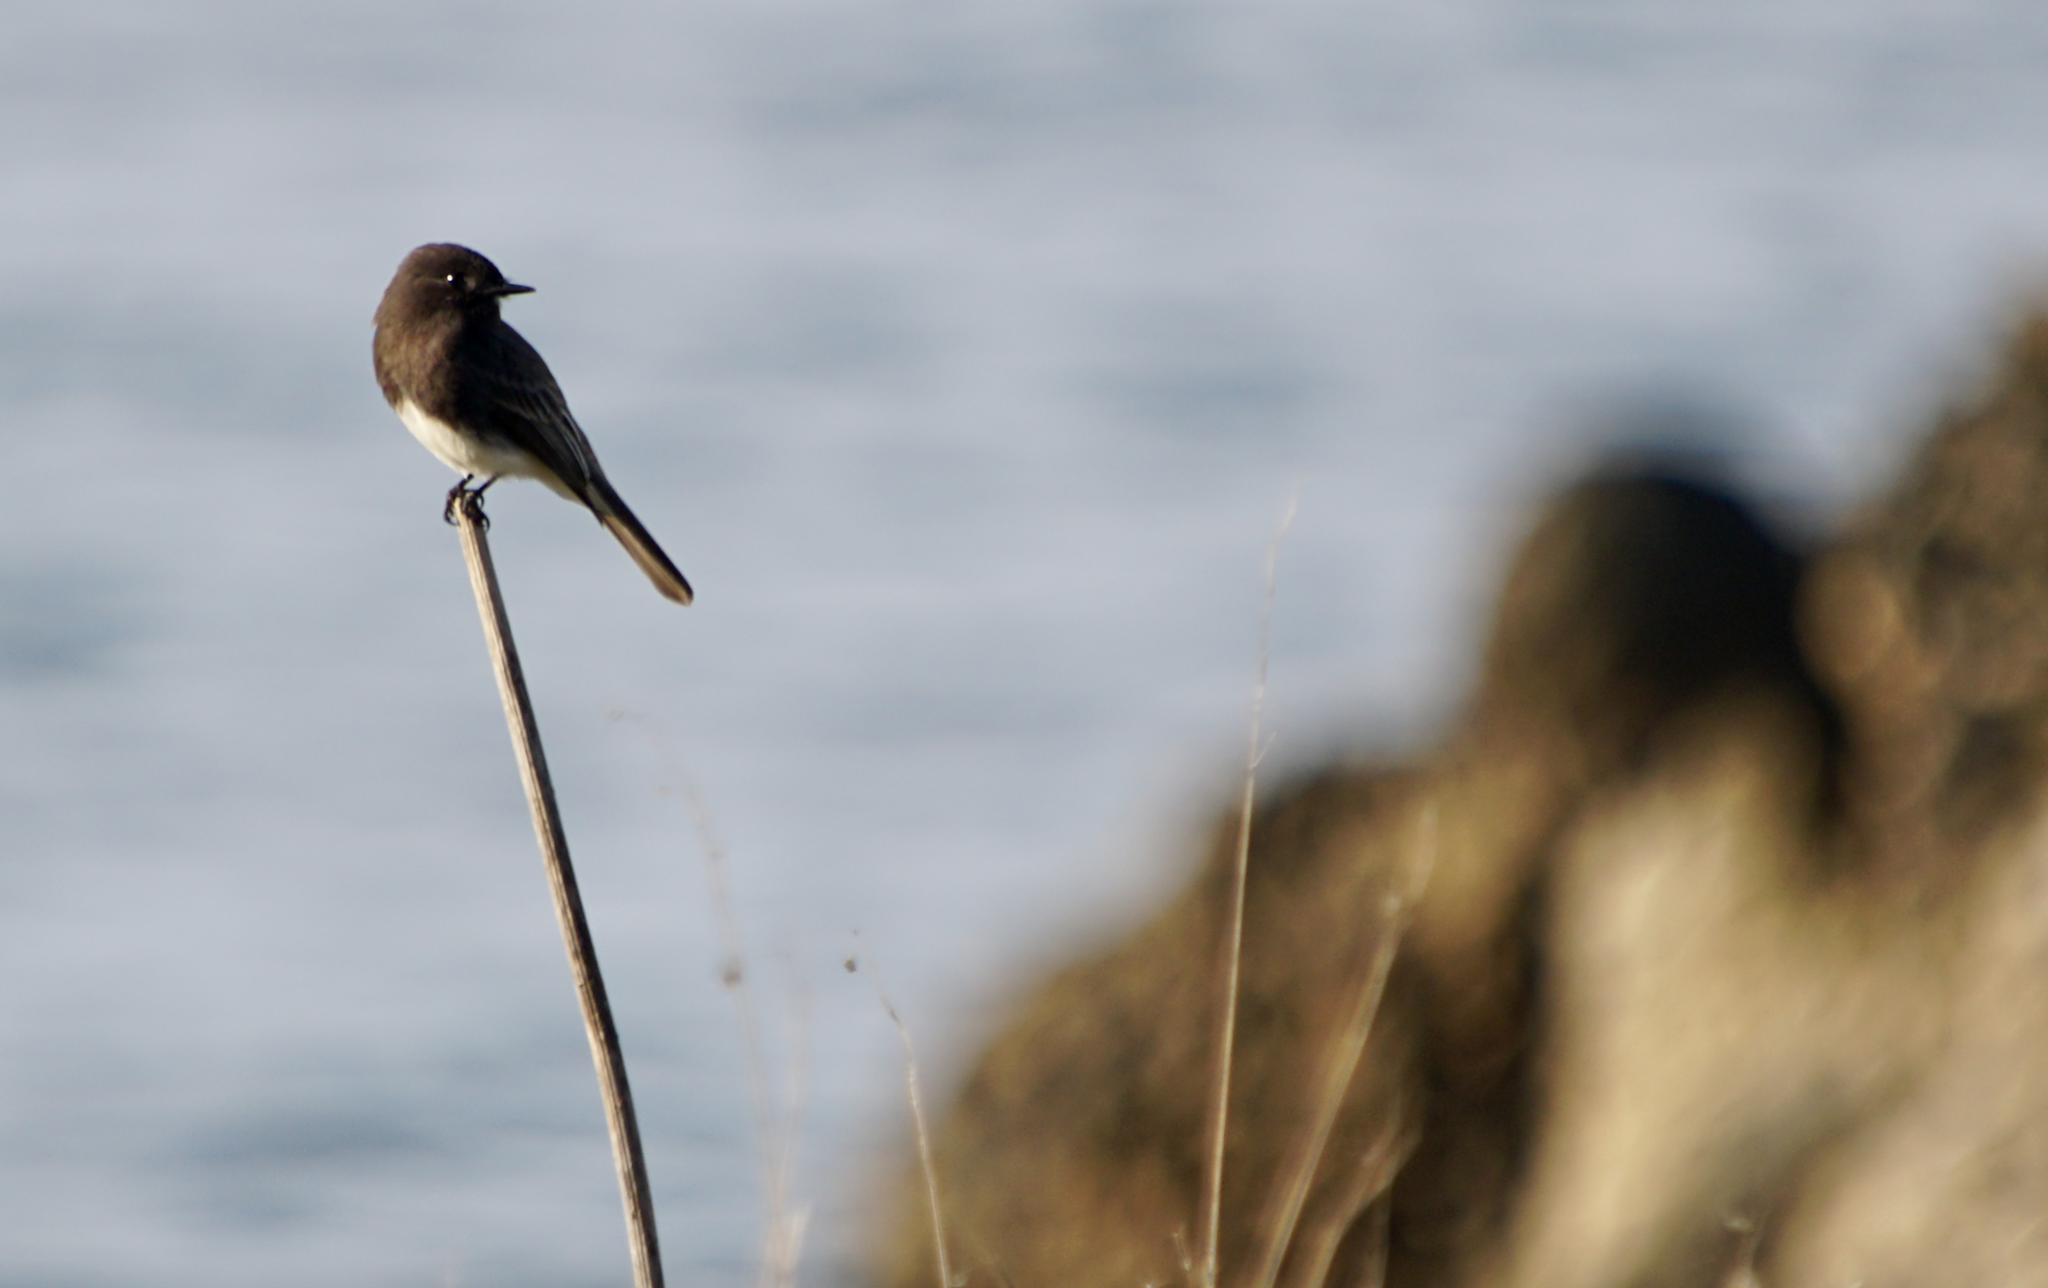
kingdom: Animalia
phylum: Chordata
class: Aves
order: Passeriformes
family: Tyrannidae
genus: Sayornis
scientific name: Sayornis nigricans
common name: Black phoebe
